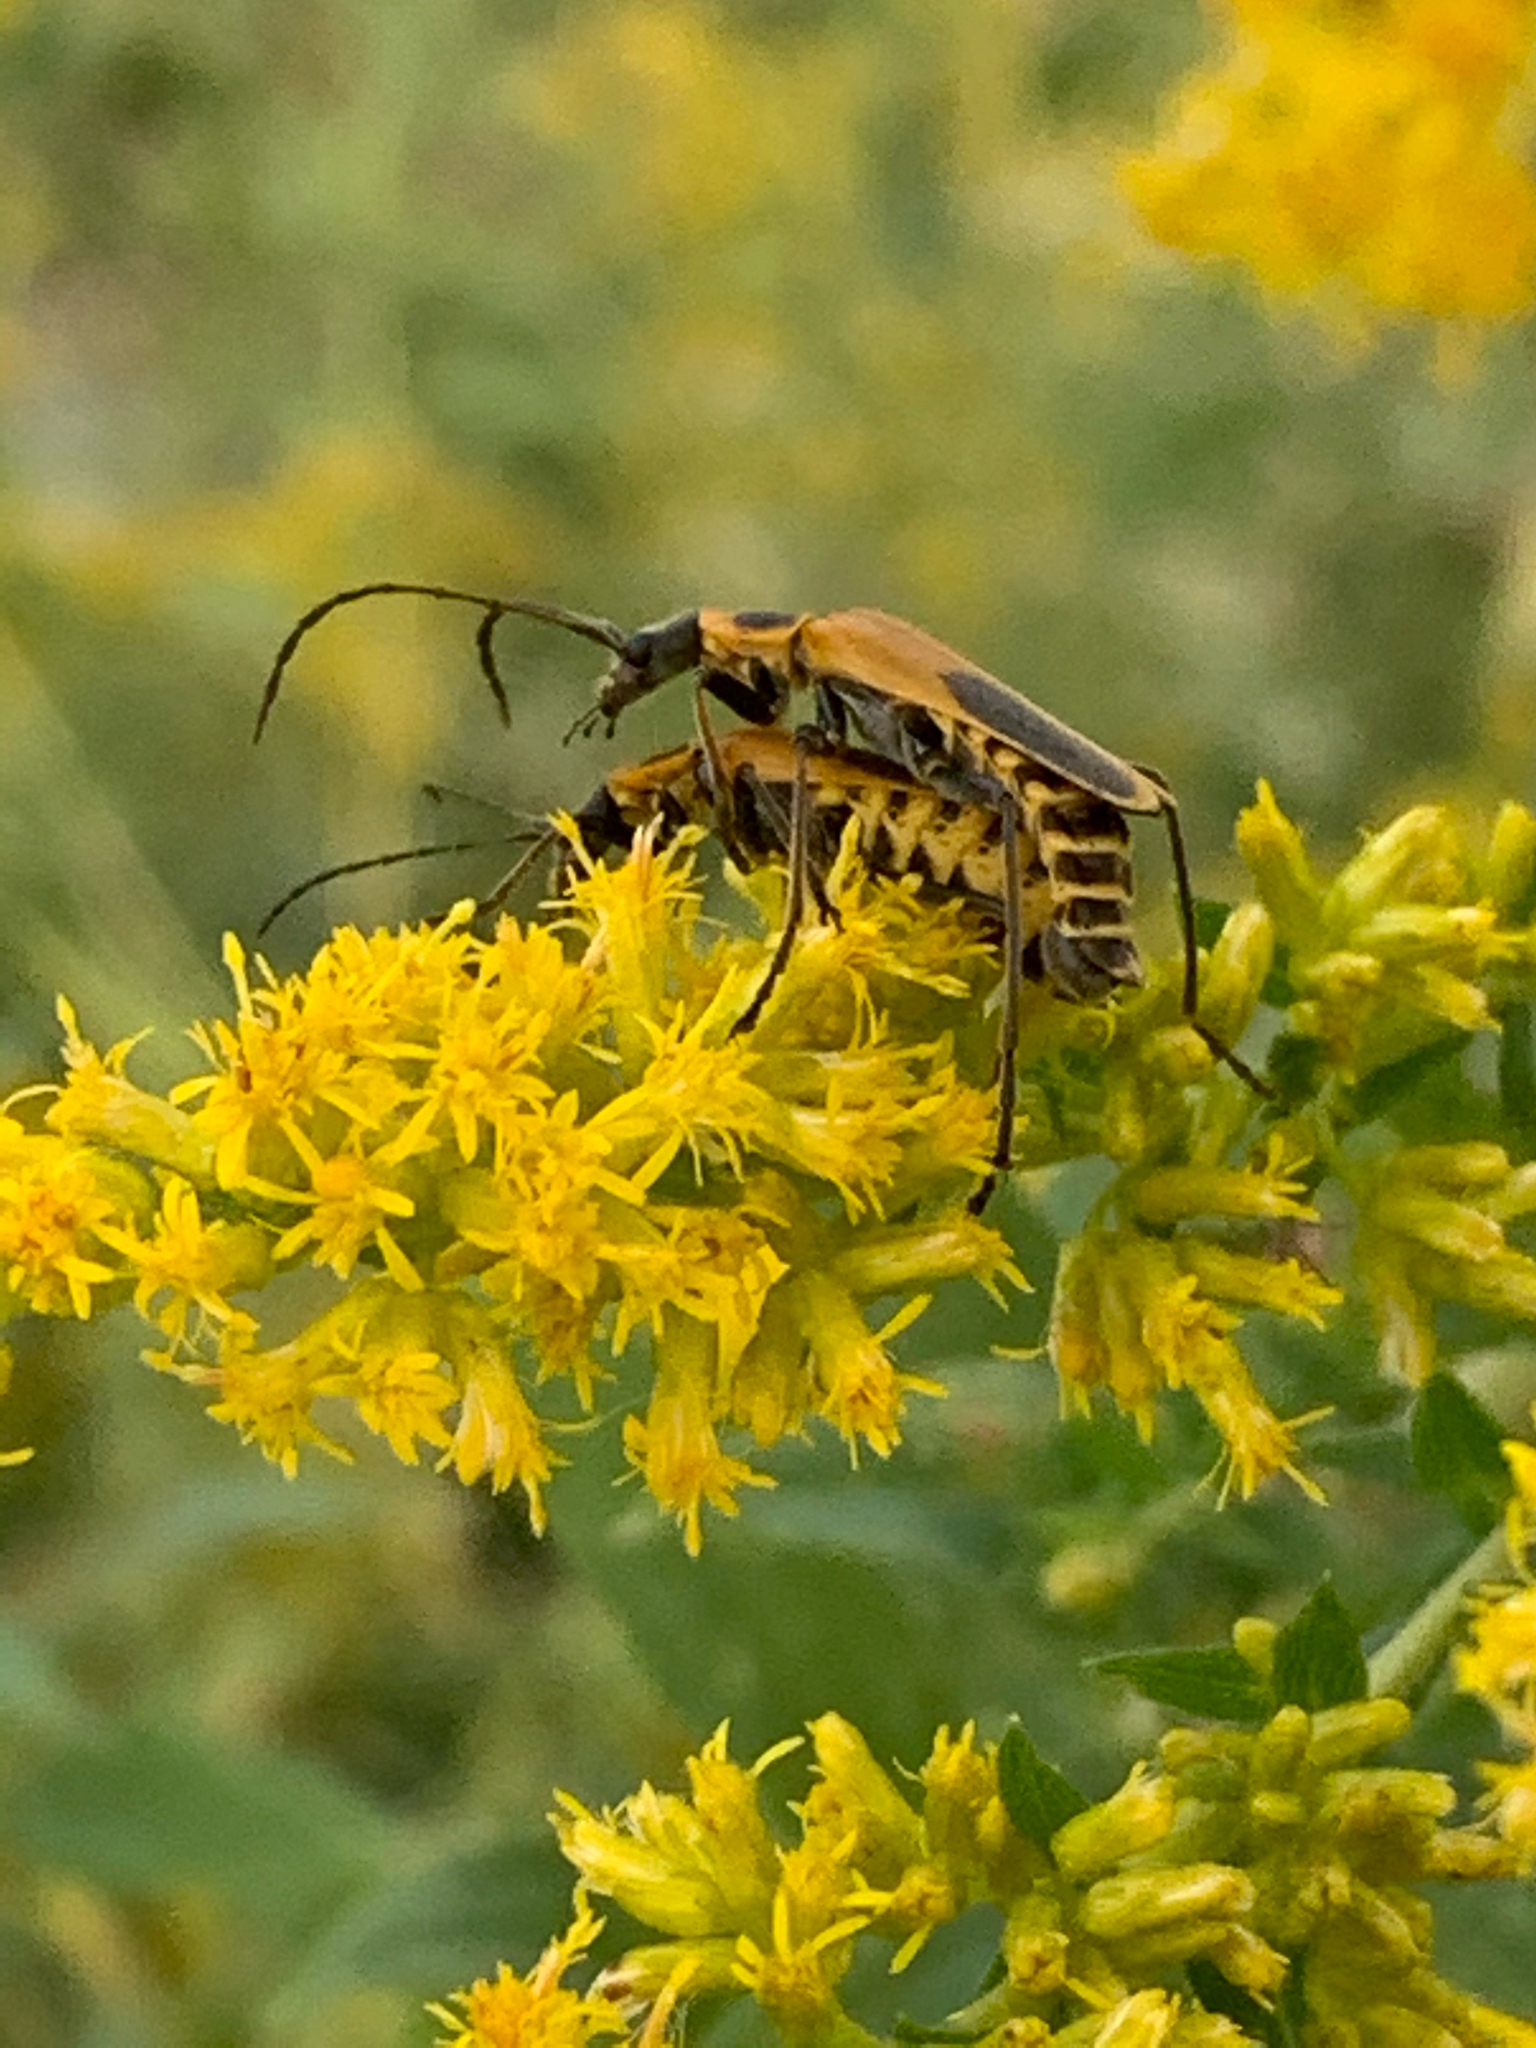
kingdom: Animalia
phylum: Arthropoda
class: Insecta
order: Coleoptera
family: Cantharidae
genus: Chauliognathus
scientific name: Chauliognathus pensylvanicus
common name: Goldenrod soldier beetle
